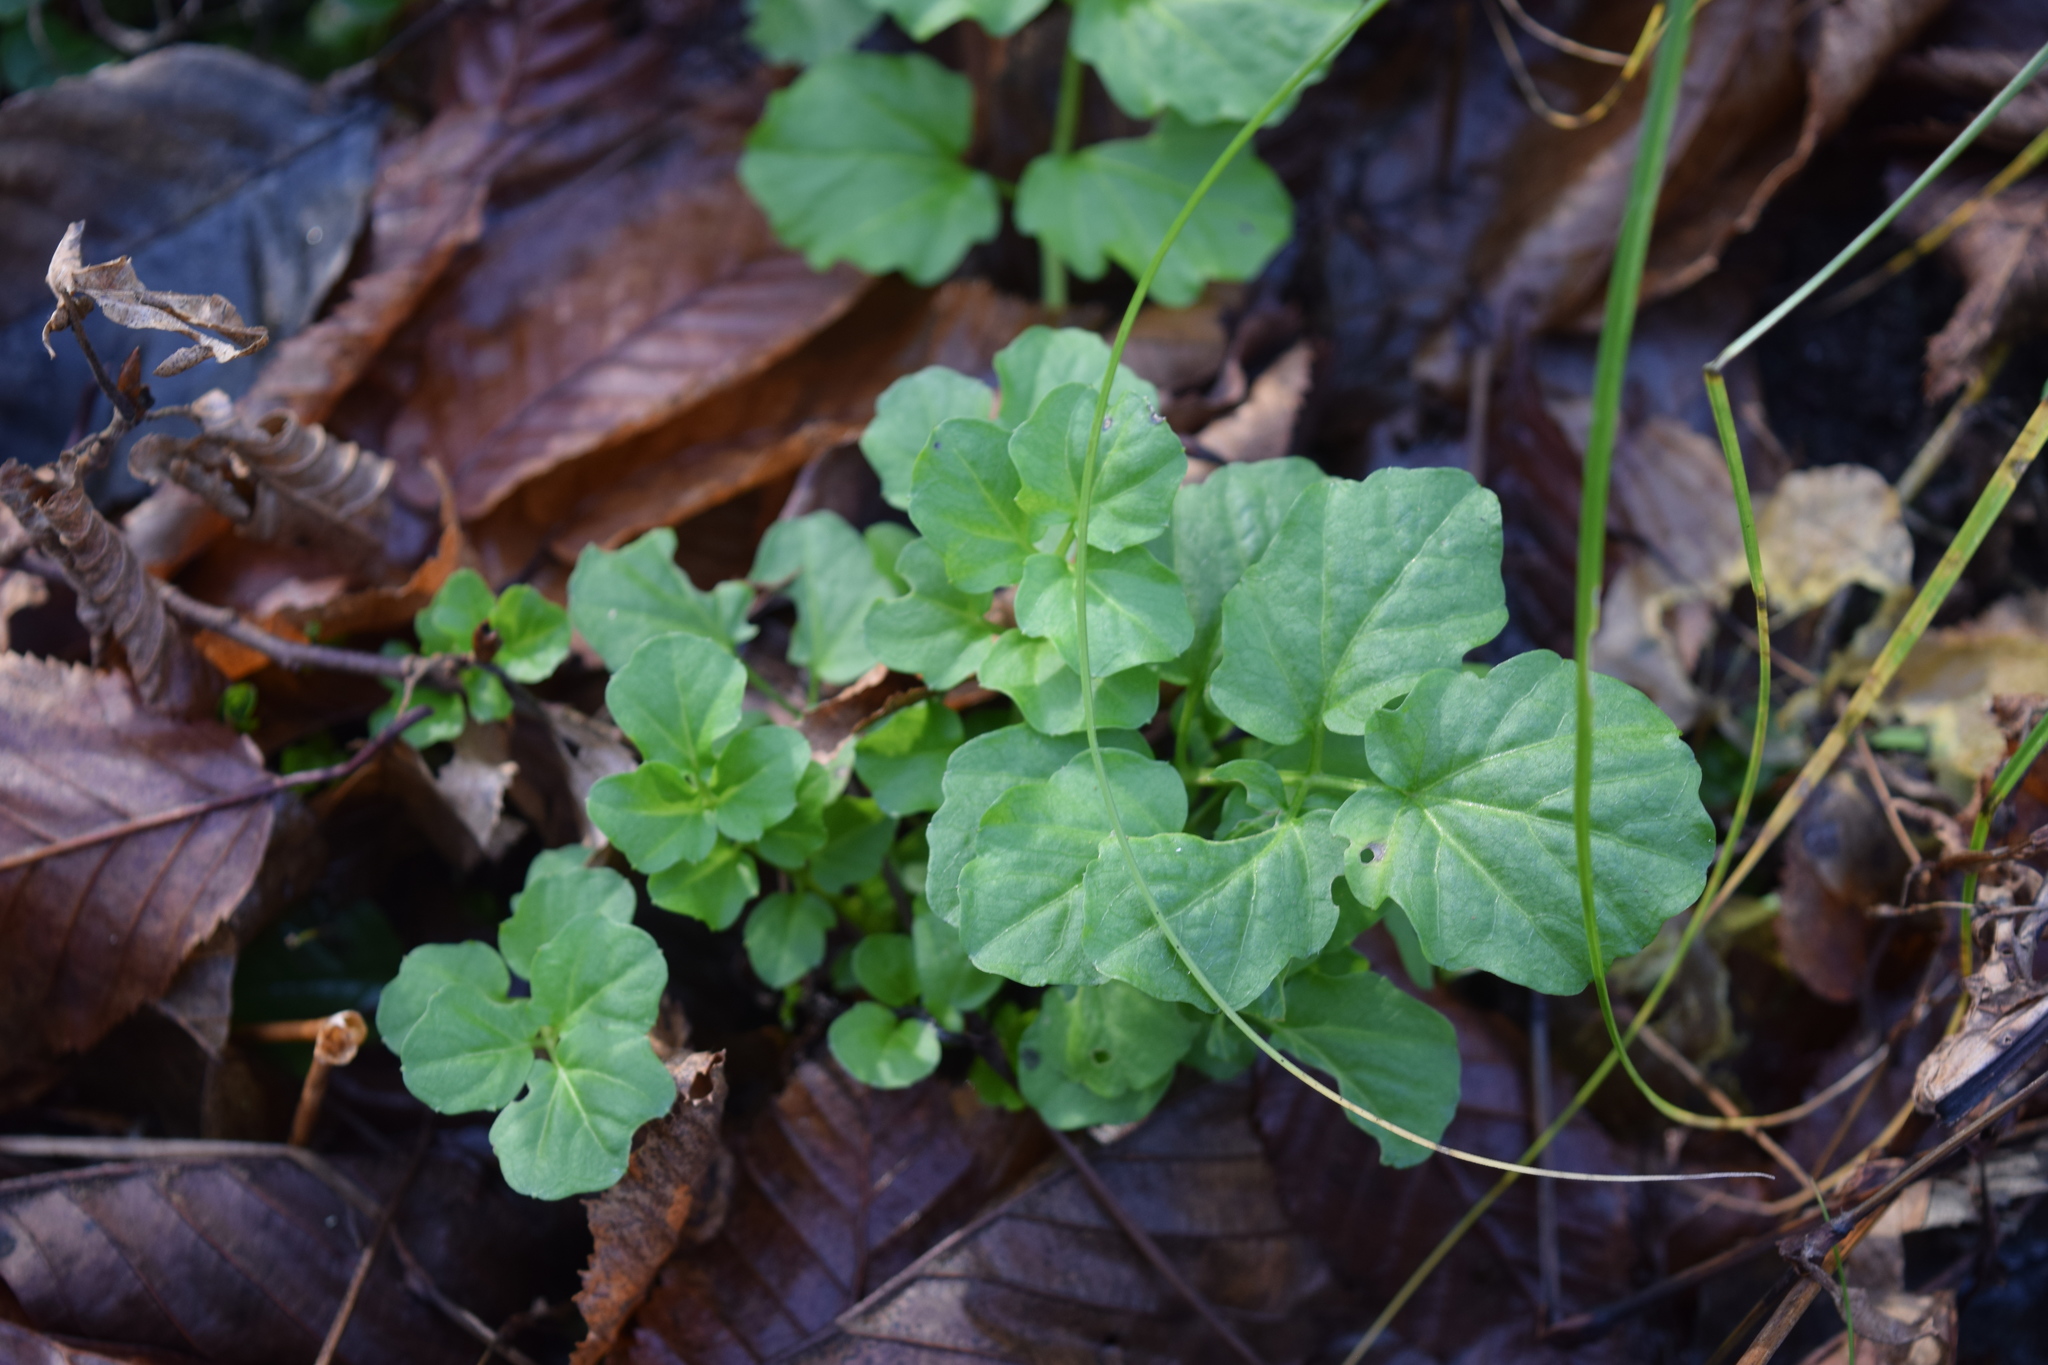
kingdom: Plantae
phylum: Tracheophyta
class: Magnoliopsida
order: Brassicales
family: Brassicaceae
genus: Cardamine
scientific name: Cardamine amara
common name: Large bitter-cress
